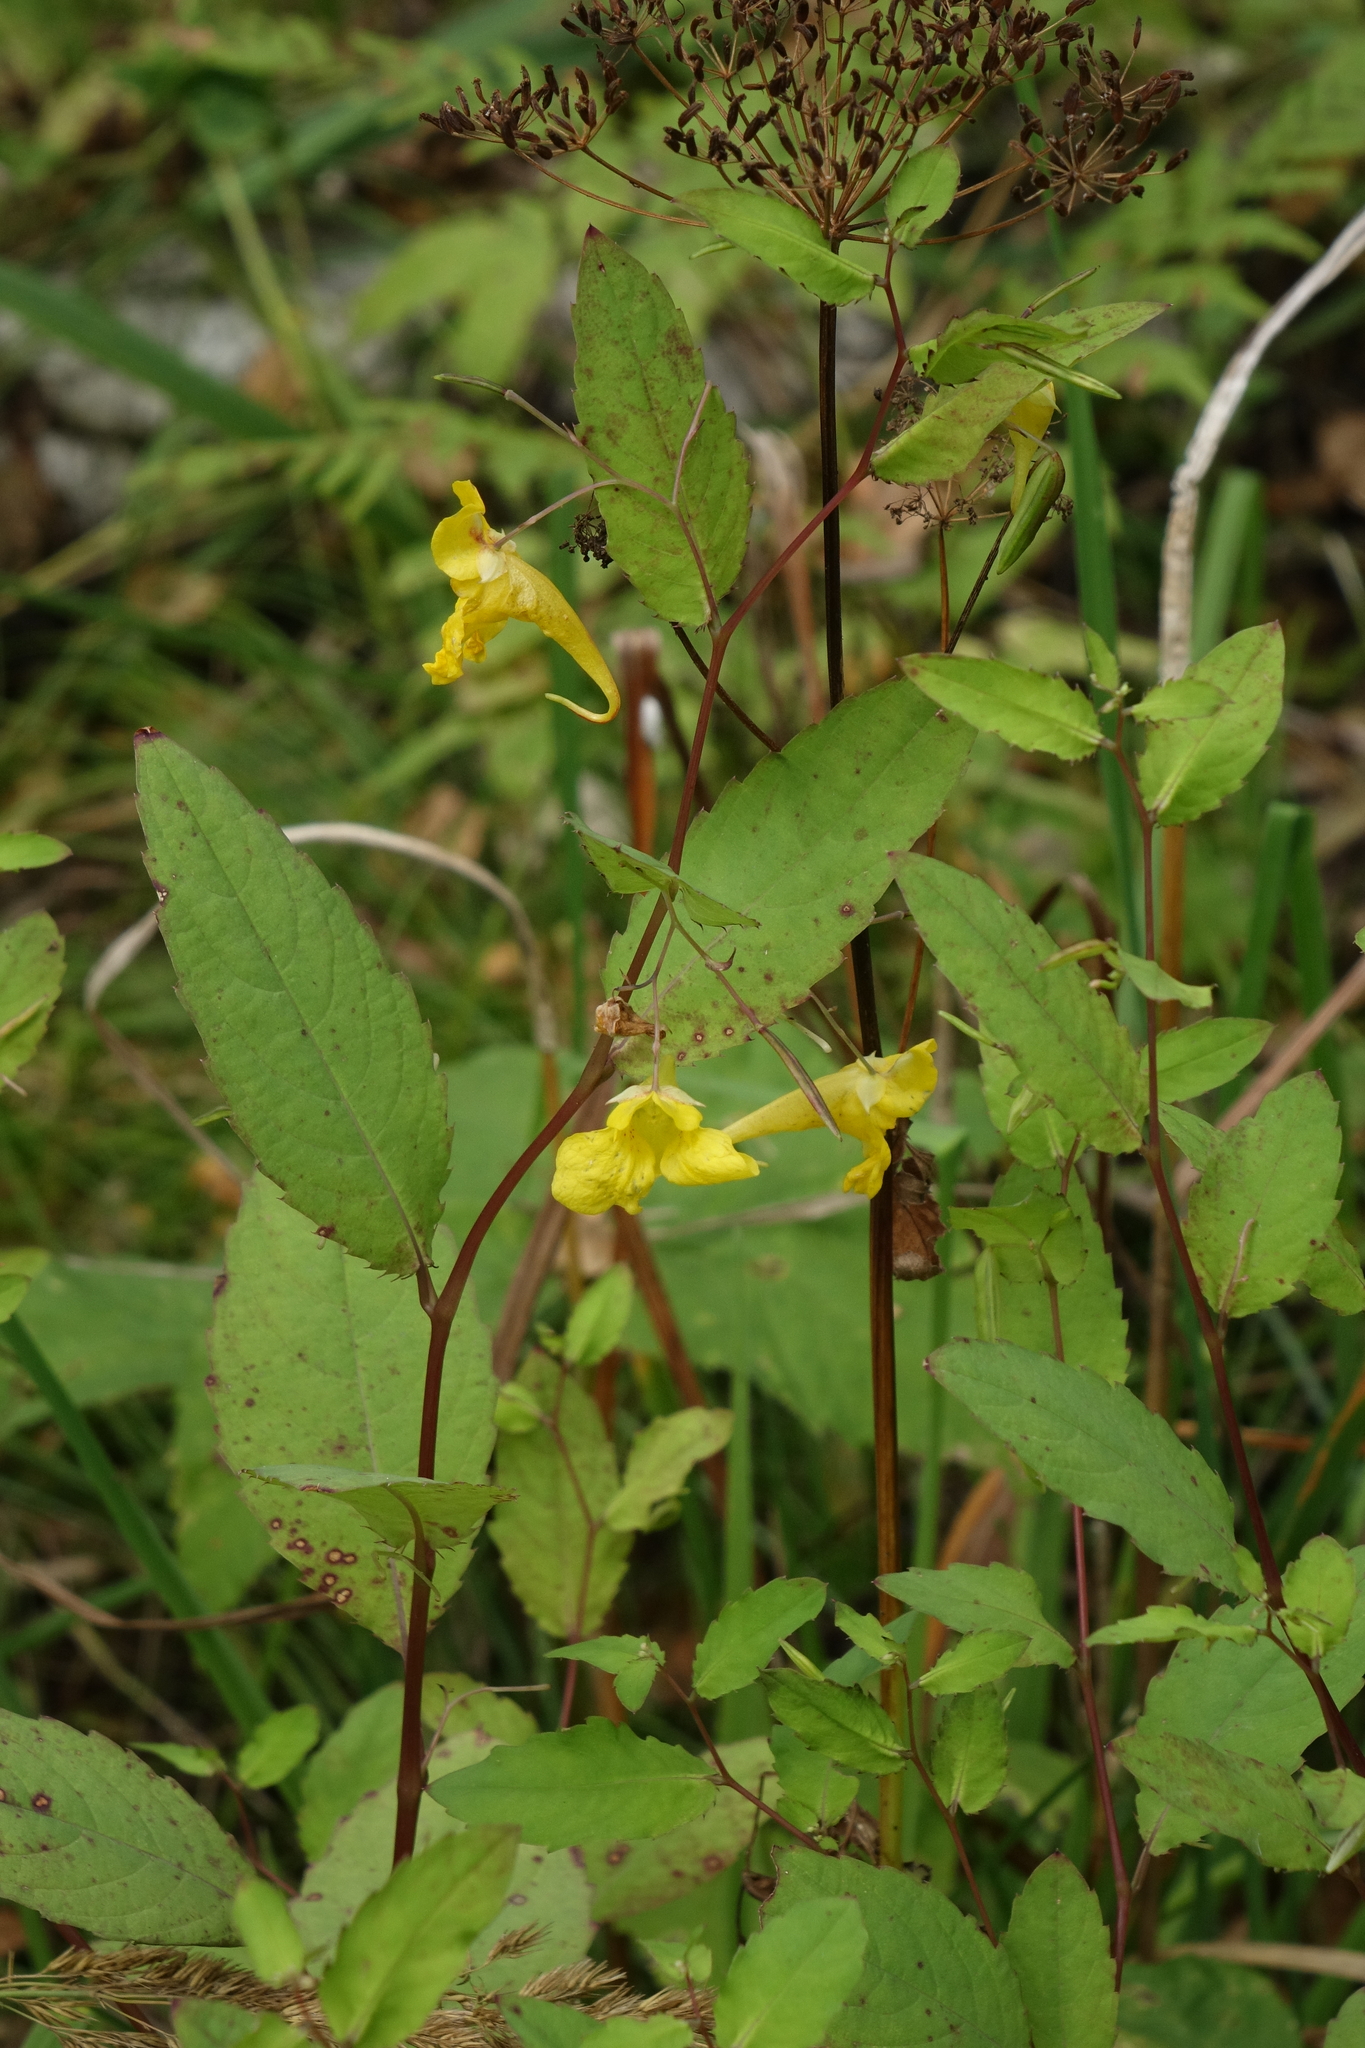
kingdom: Plantae
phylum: Tracheophyta
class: Magnoliopsida
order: Ericales
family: Balsaminaceae
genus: Impatiens
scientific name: Impatiens noli-tangere
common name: Touch-me-not balsam
